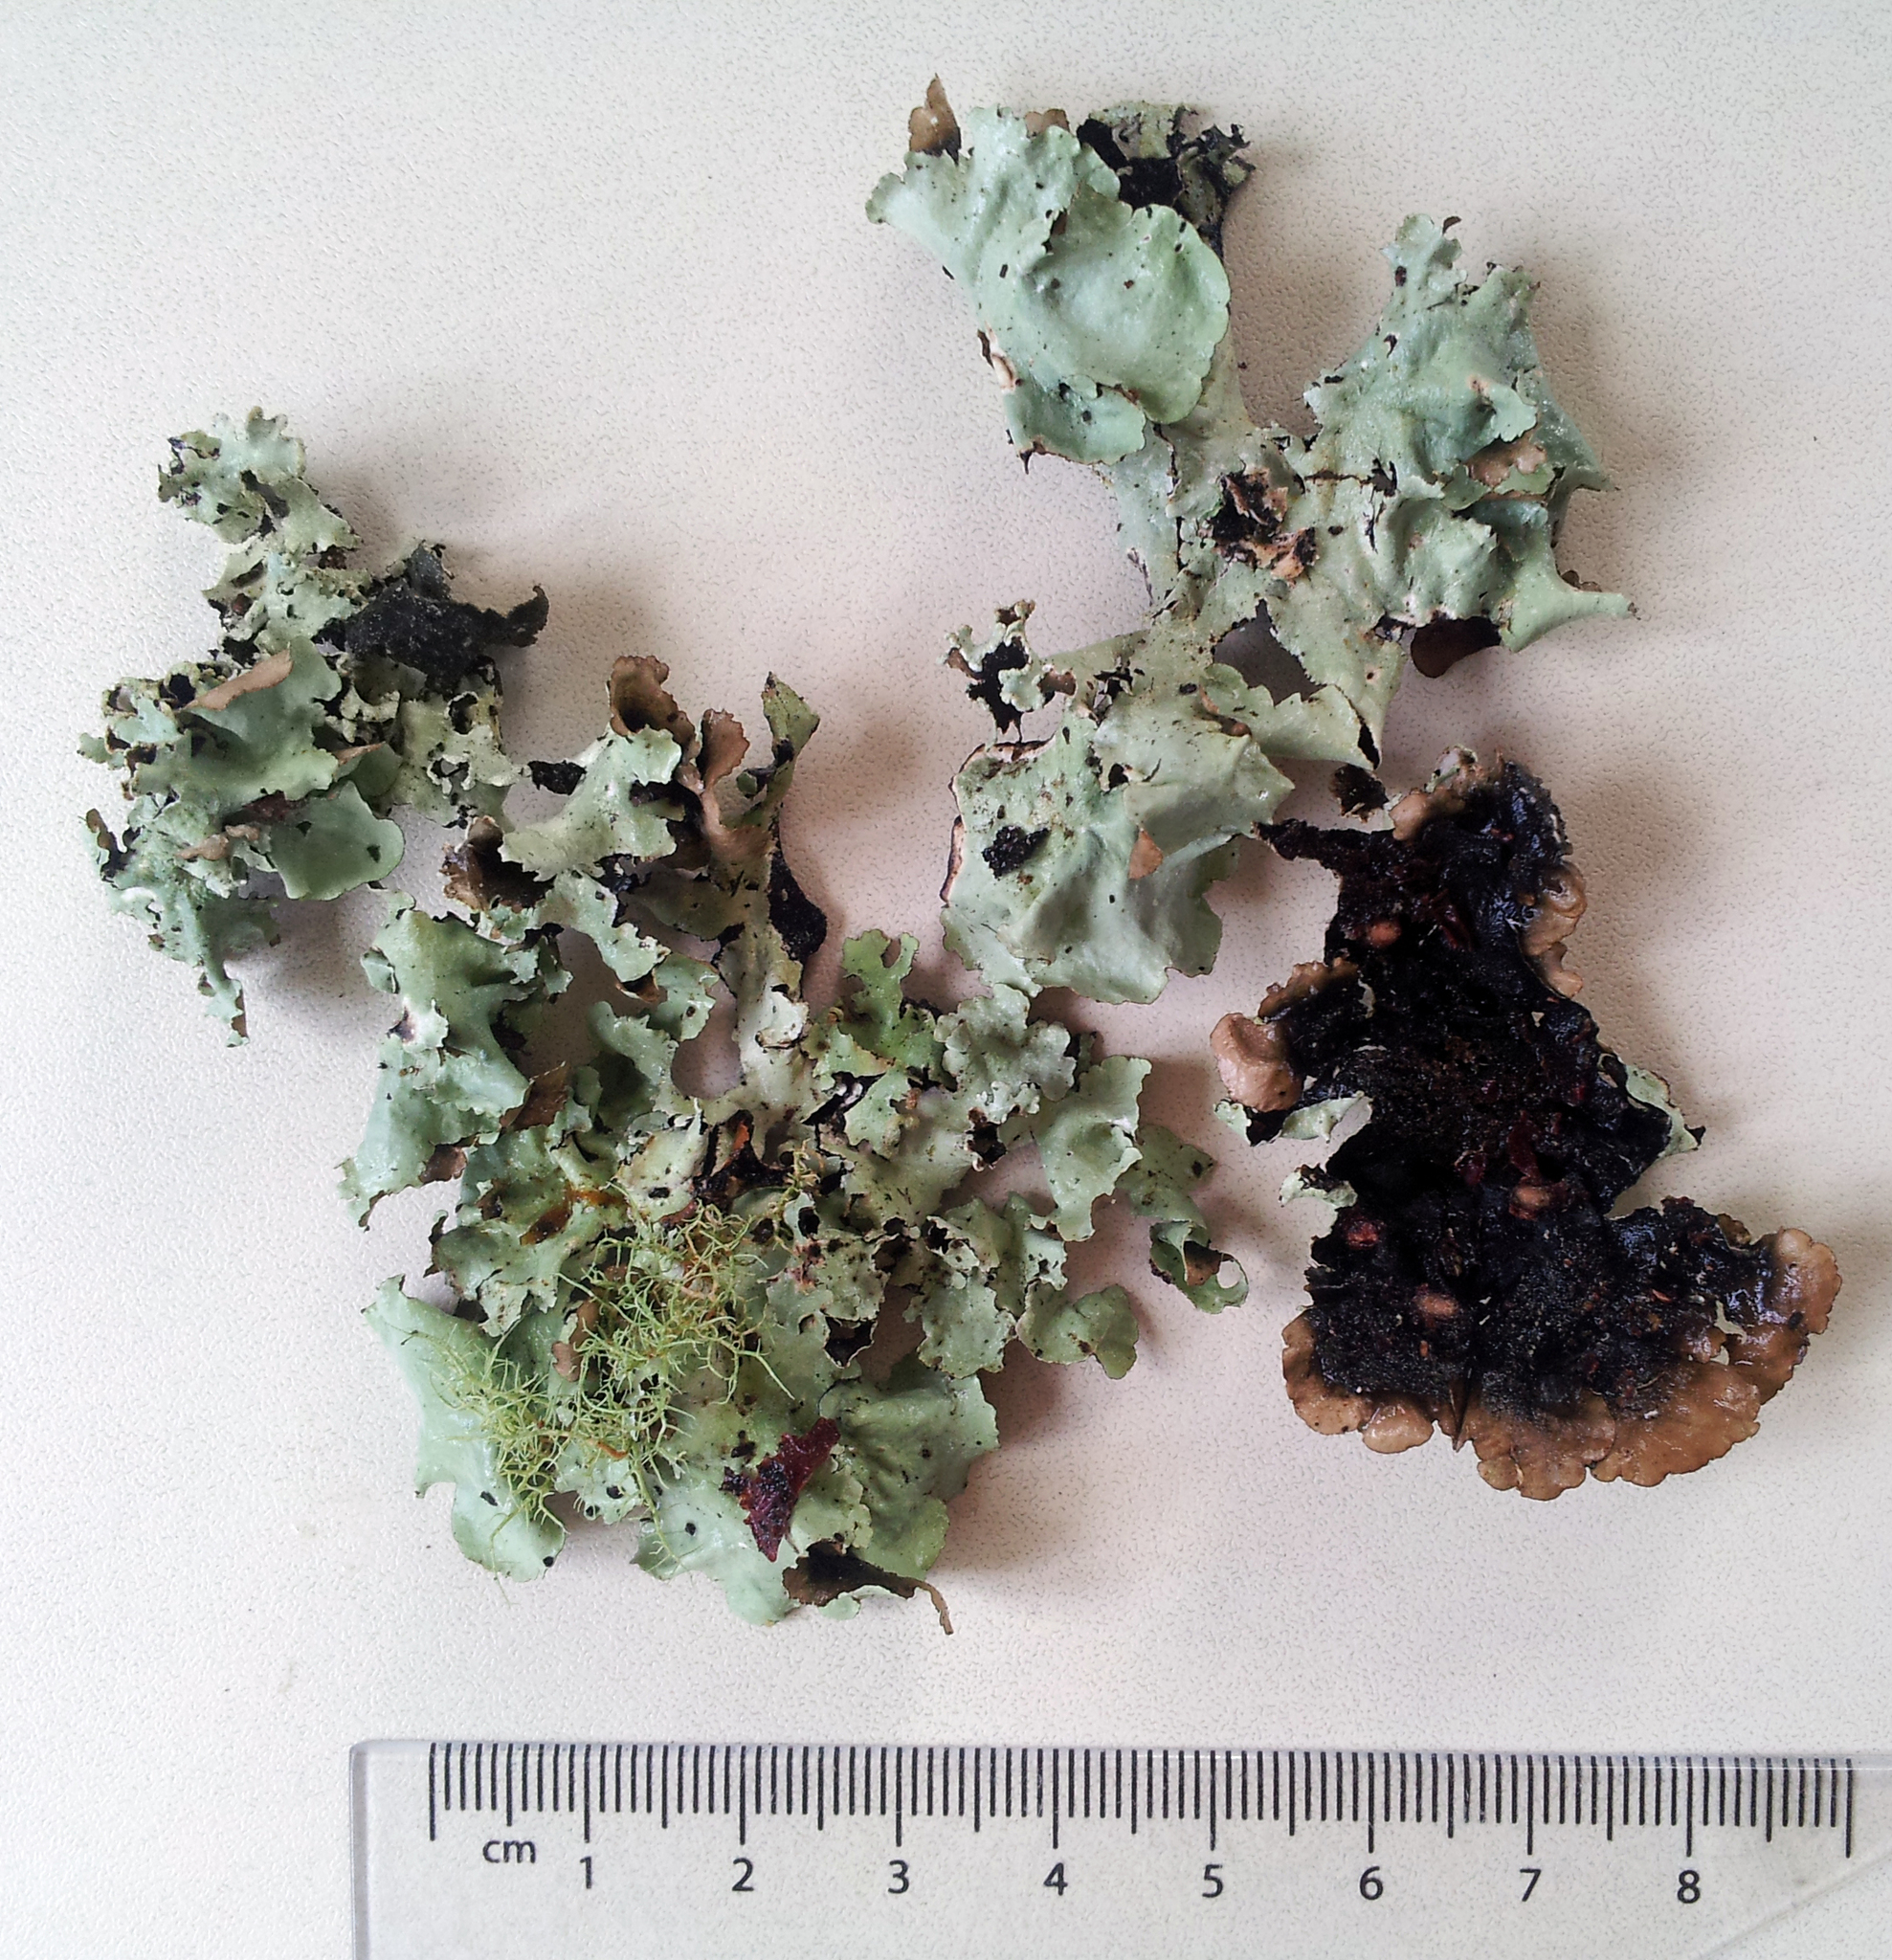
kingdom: Fungi
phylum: Ascomycota
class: Lecanoromycetes
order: Lecanorales
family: Parmeliaceae
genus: Parmotrema
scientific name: Parmotrema robustum
